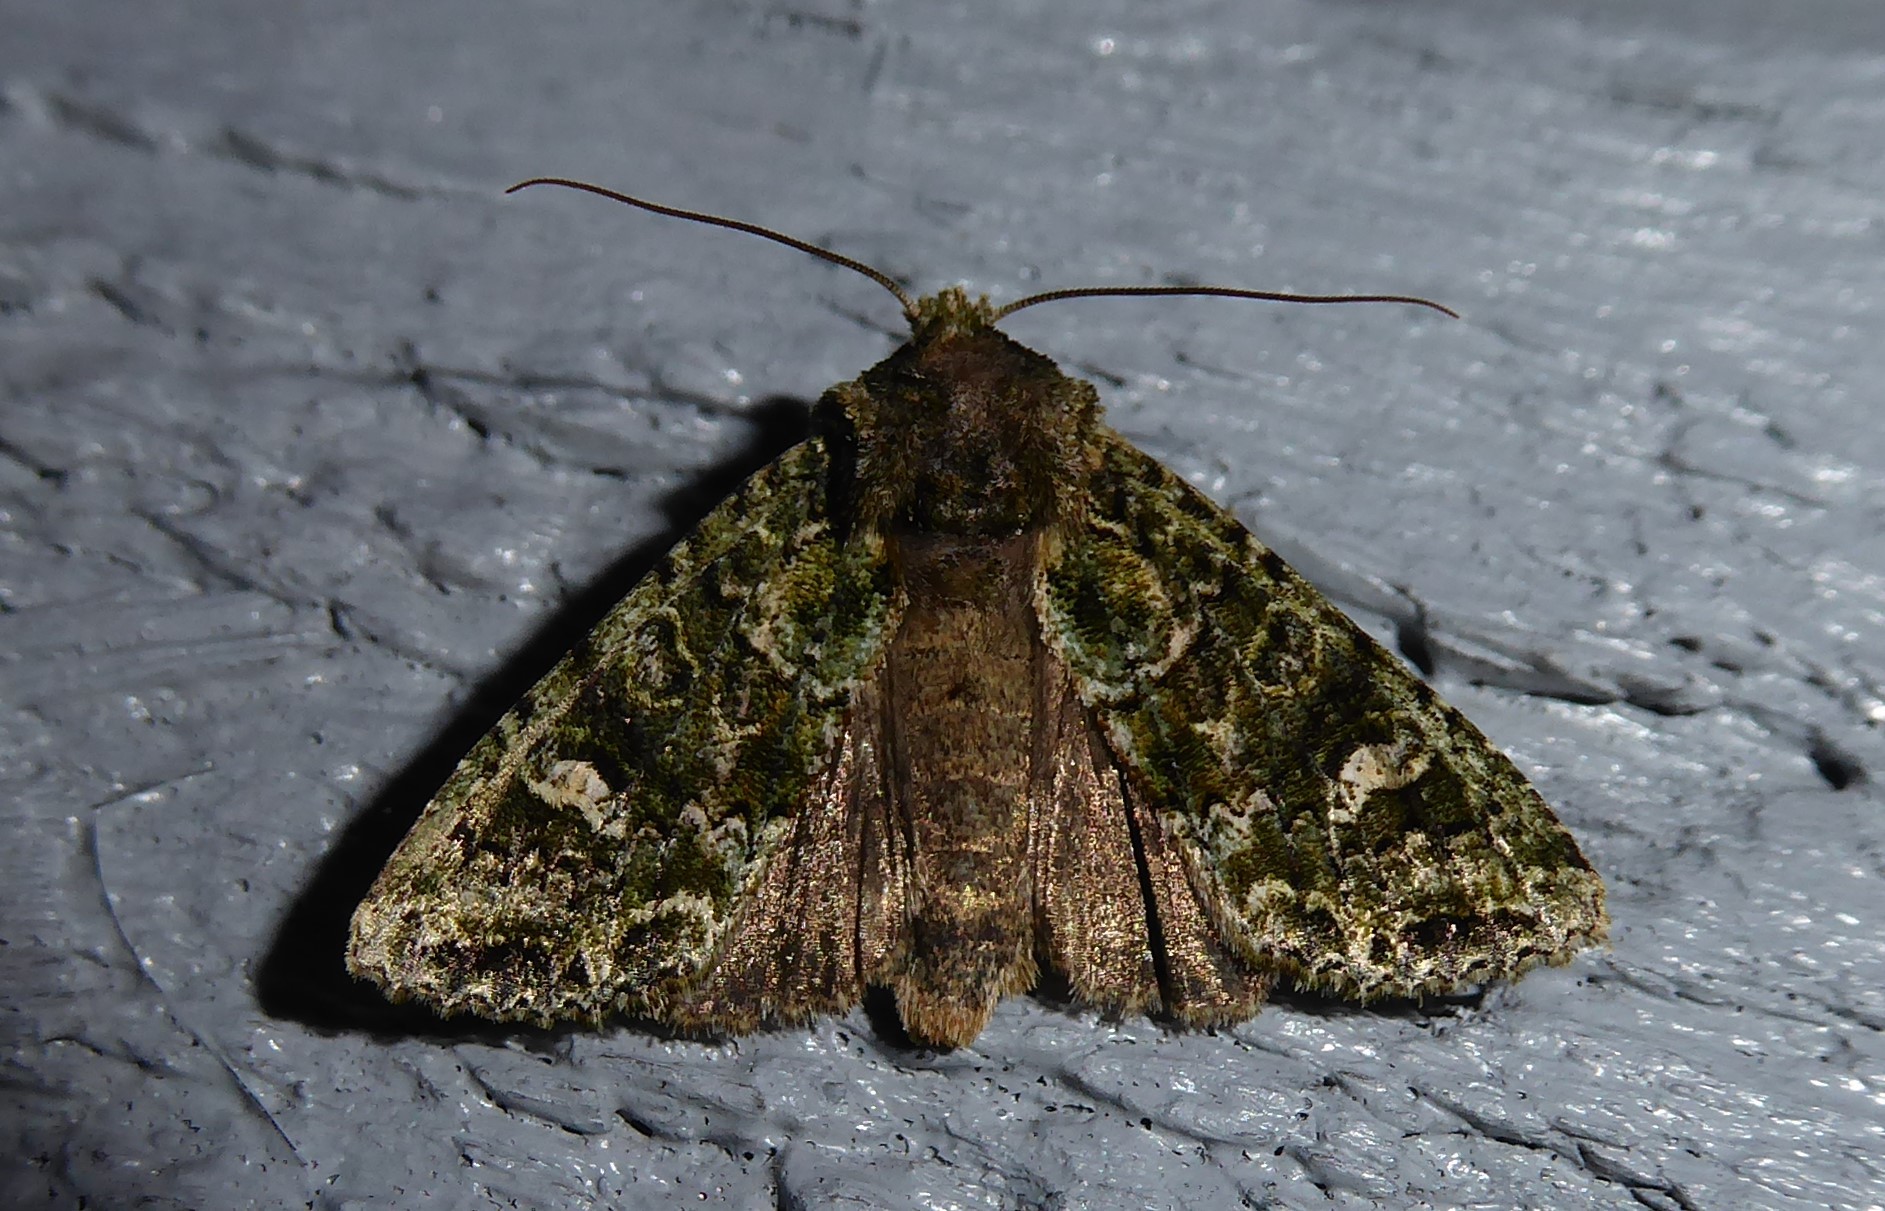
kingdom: Animalia
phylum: Arthropoda
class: Insecta
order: Lepidoptera
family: Noctuidae
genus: Ichneutica
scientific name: Ichneutica
